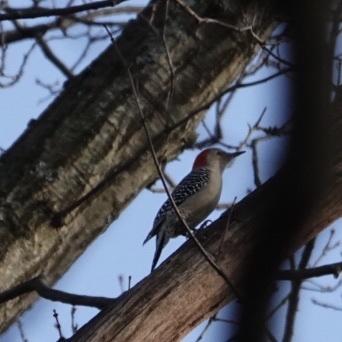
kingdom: Animalia
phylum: Chordata
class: Aves
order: Piciformes
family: Picidae
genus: Melanerpes
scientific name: Melanerpes carolinus
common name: Red-bellied woodpecker
